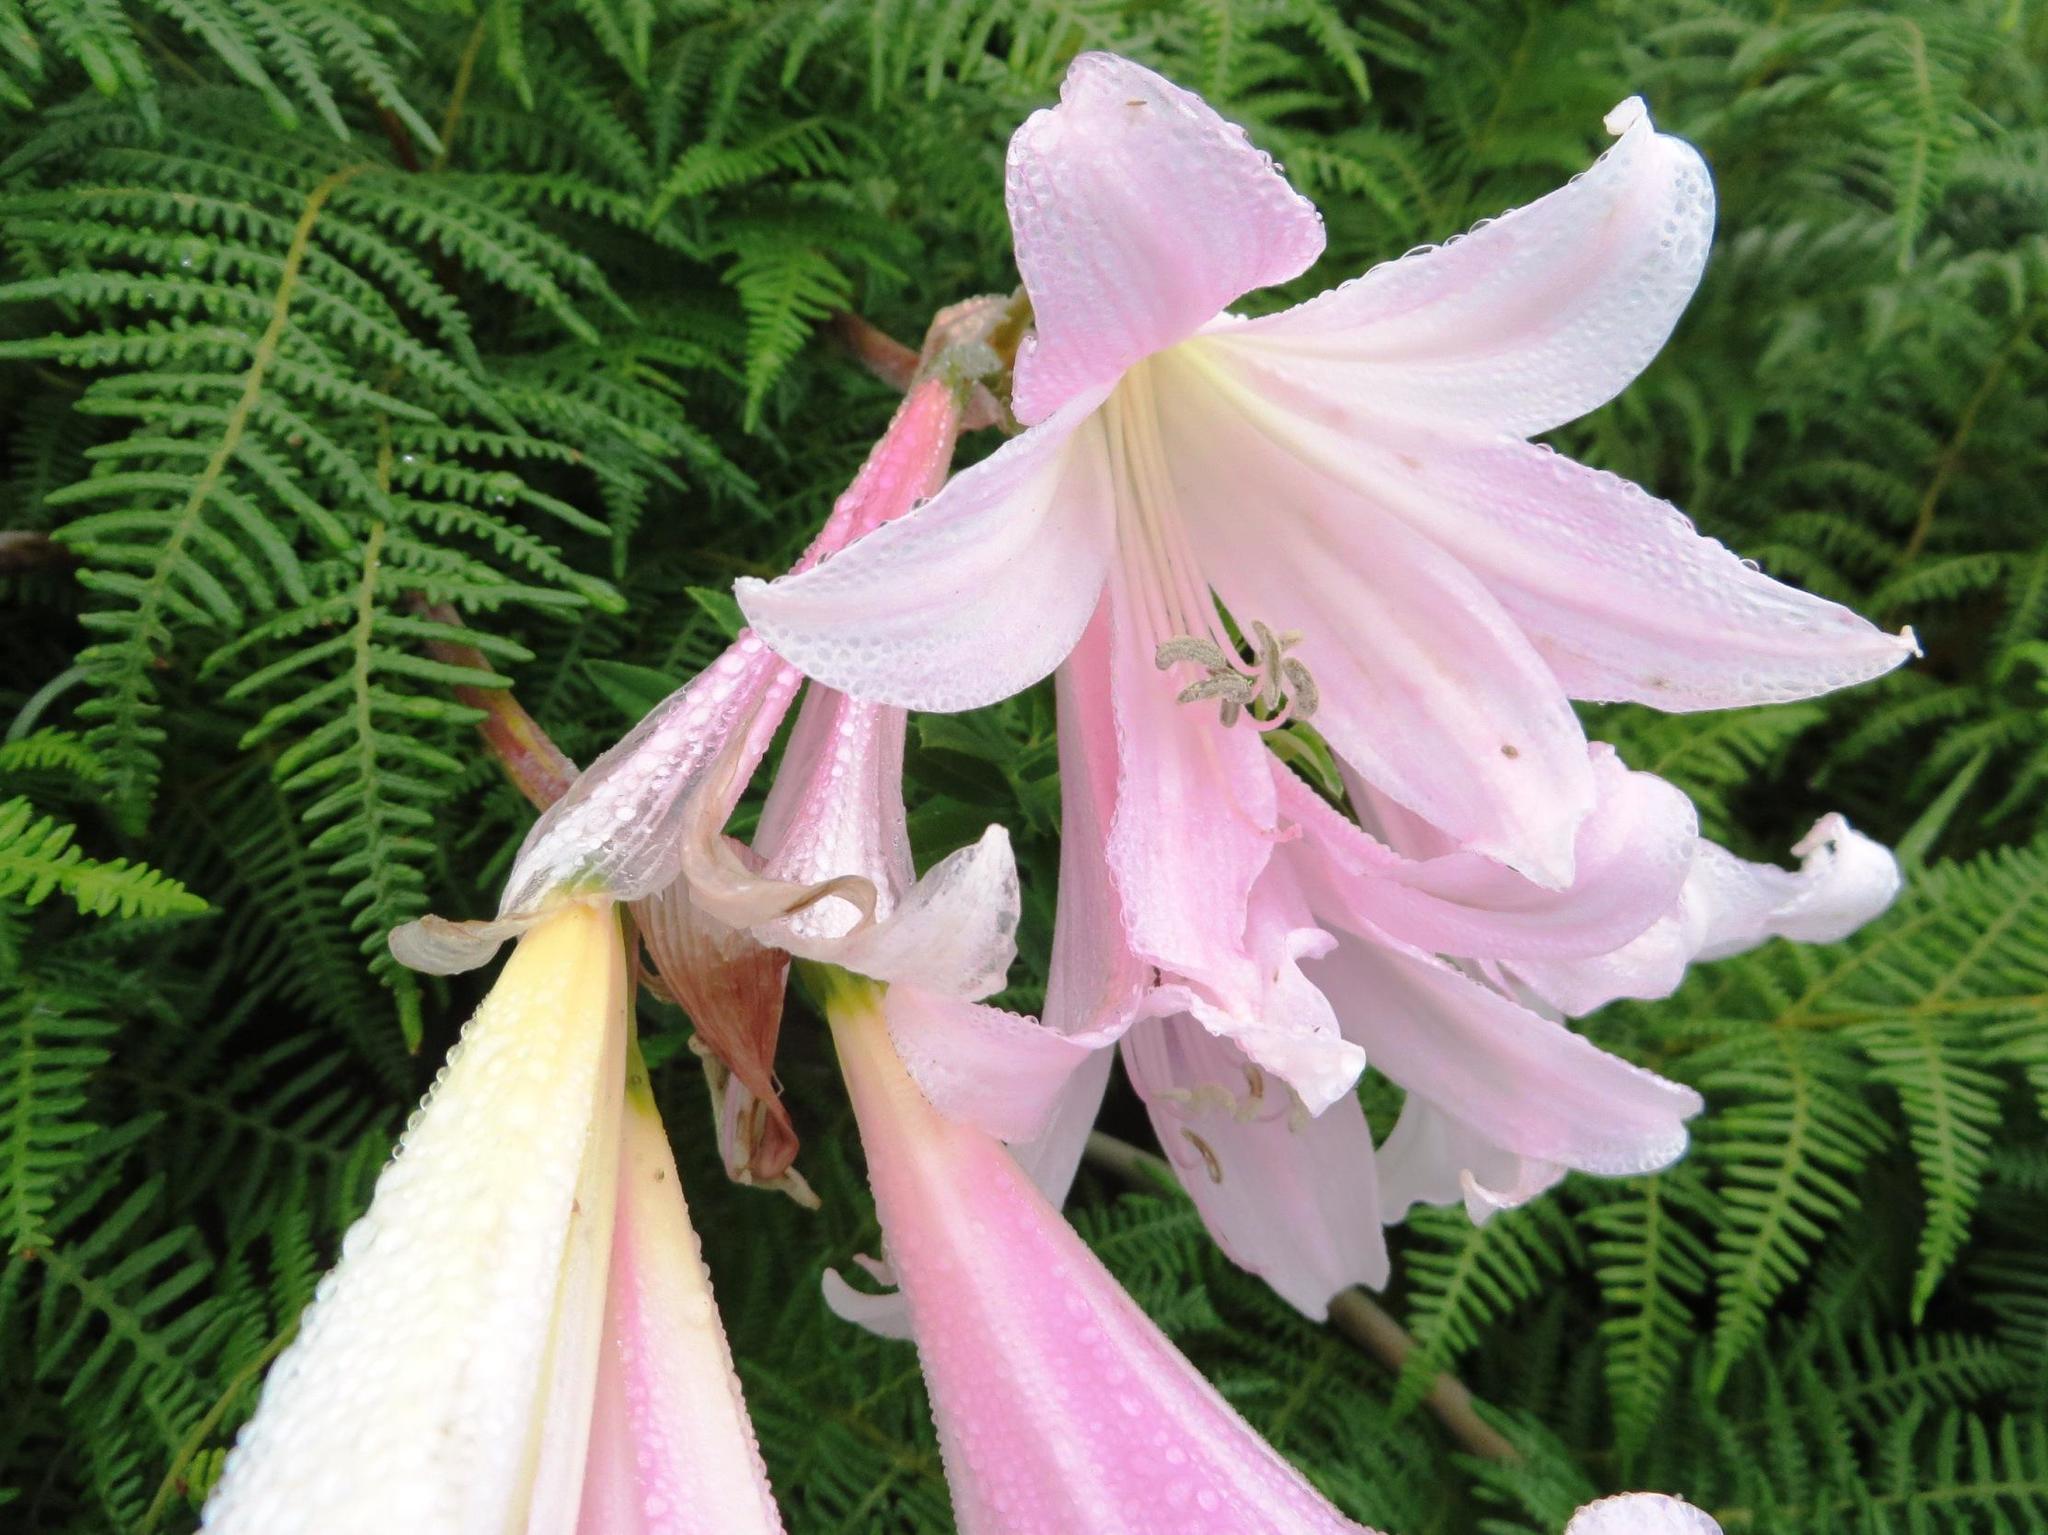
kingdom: Plantae
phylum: Tracheophyta
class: Liliopsida
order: Asparagales
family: Amaryllidaceae
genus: Amaryllis
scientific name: Amaryllis belladonna
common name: Jersey lily
